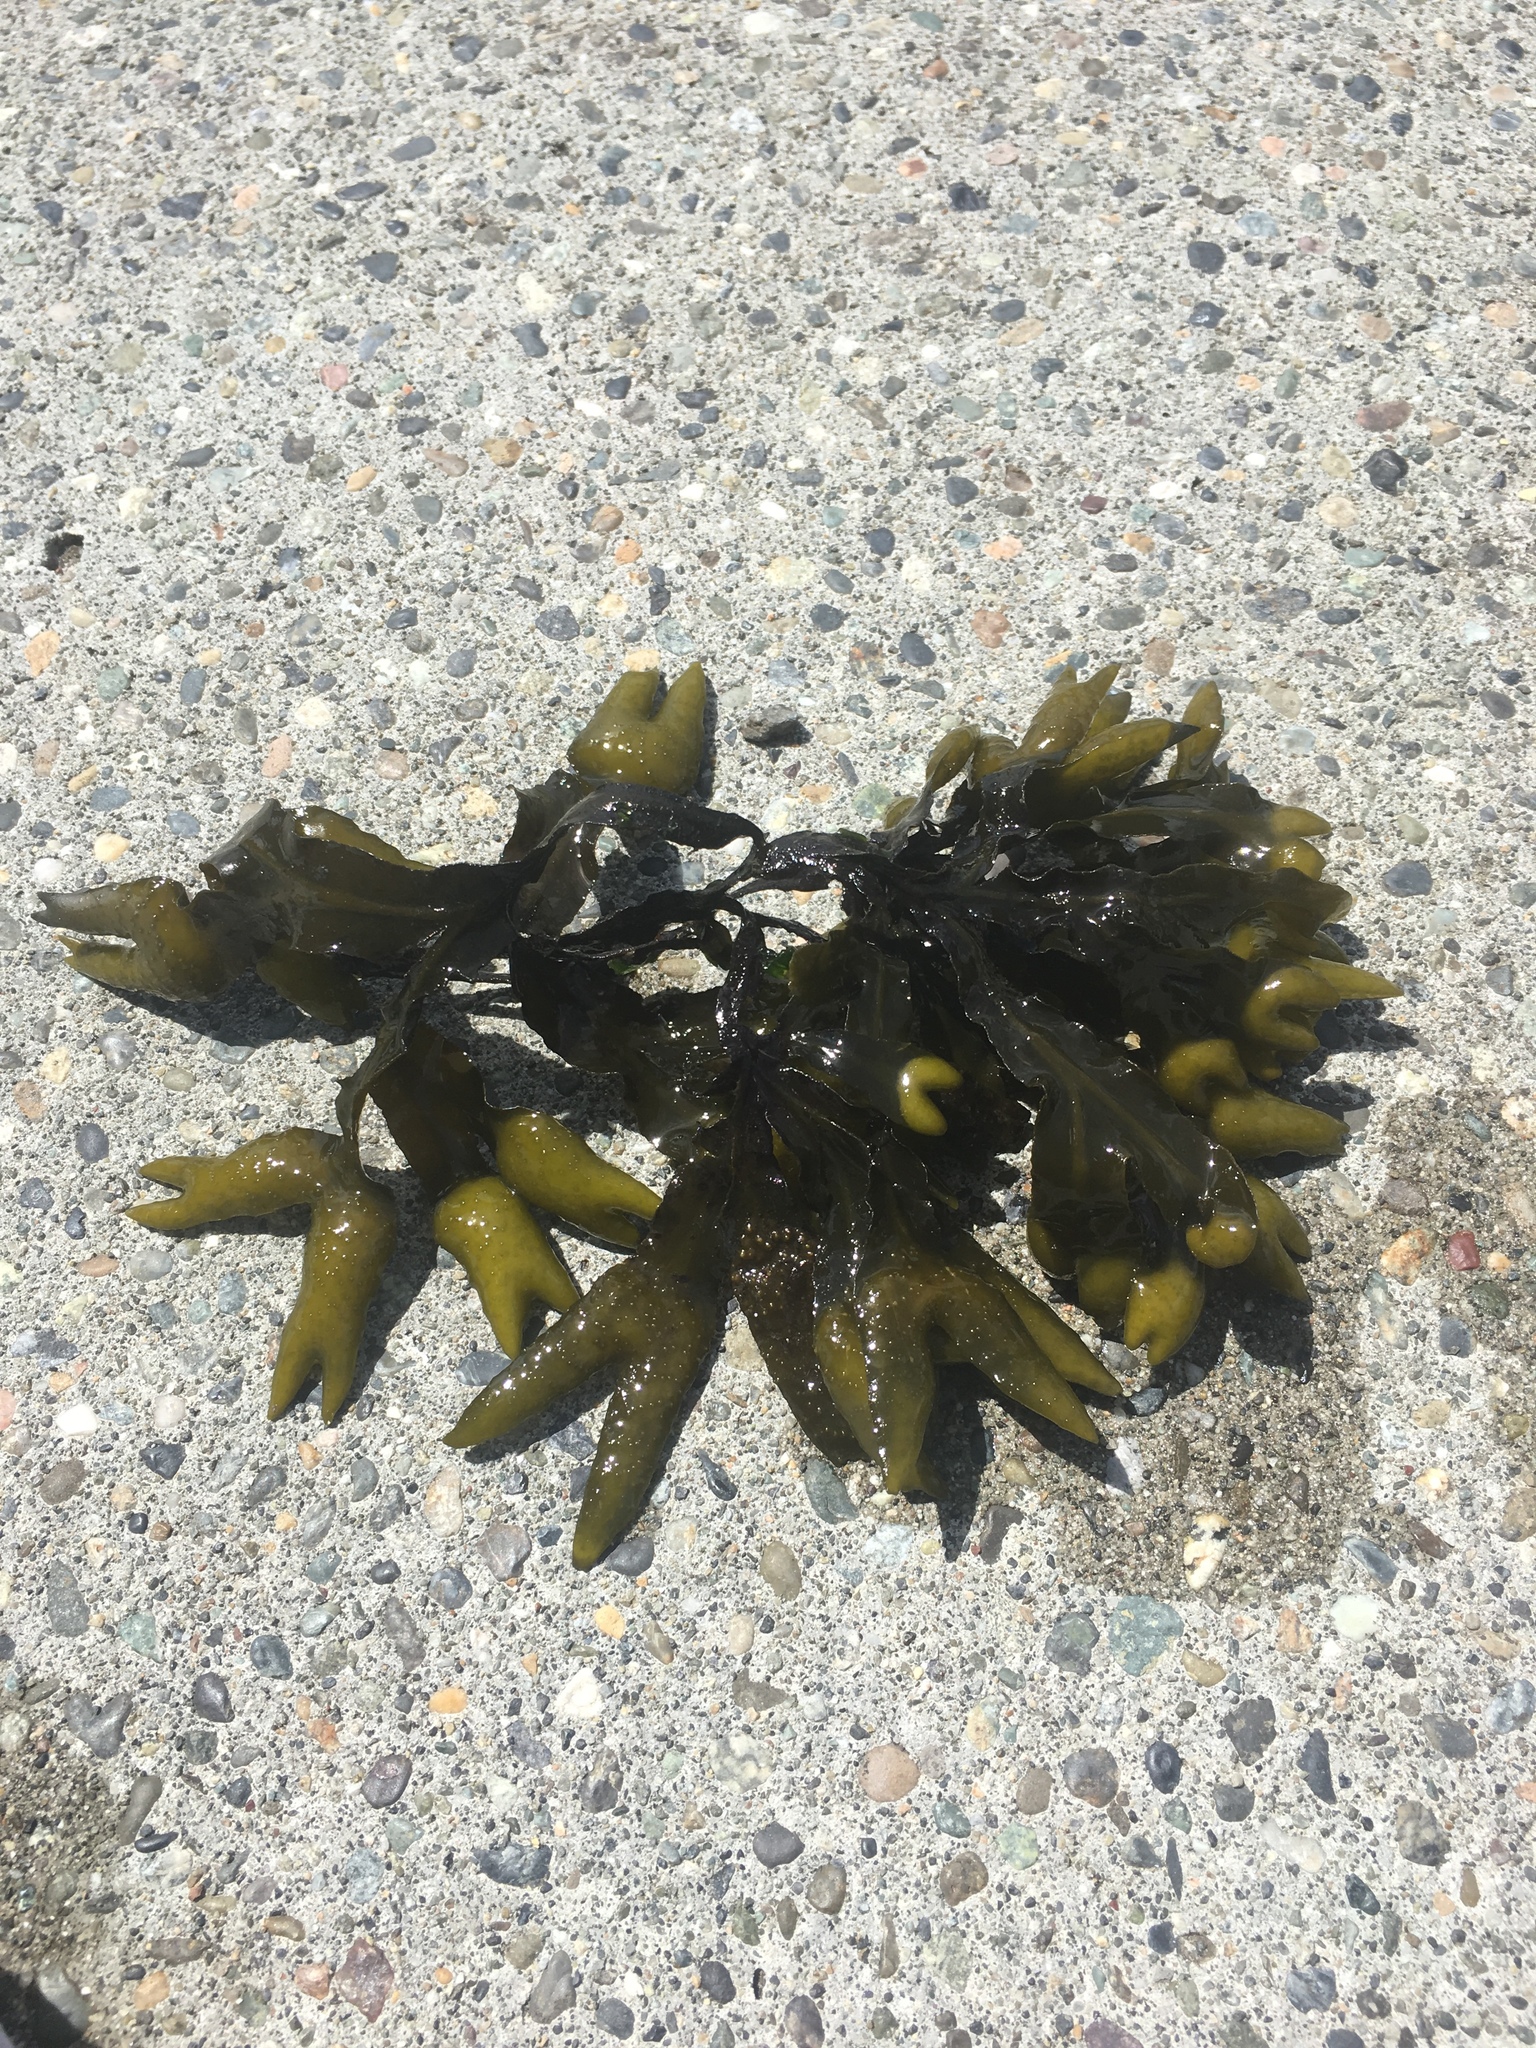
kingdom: Chromista
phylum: Ochrophyta
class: Phaeophyceae
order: Fucales
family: Fucaceae
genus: Fucus
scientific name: Fucus distichus
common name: Rockweed
